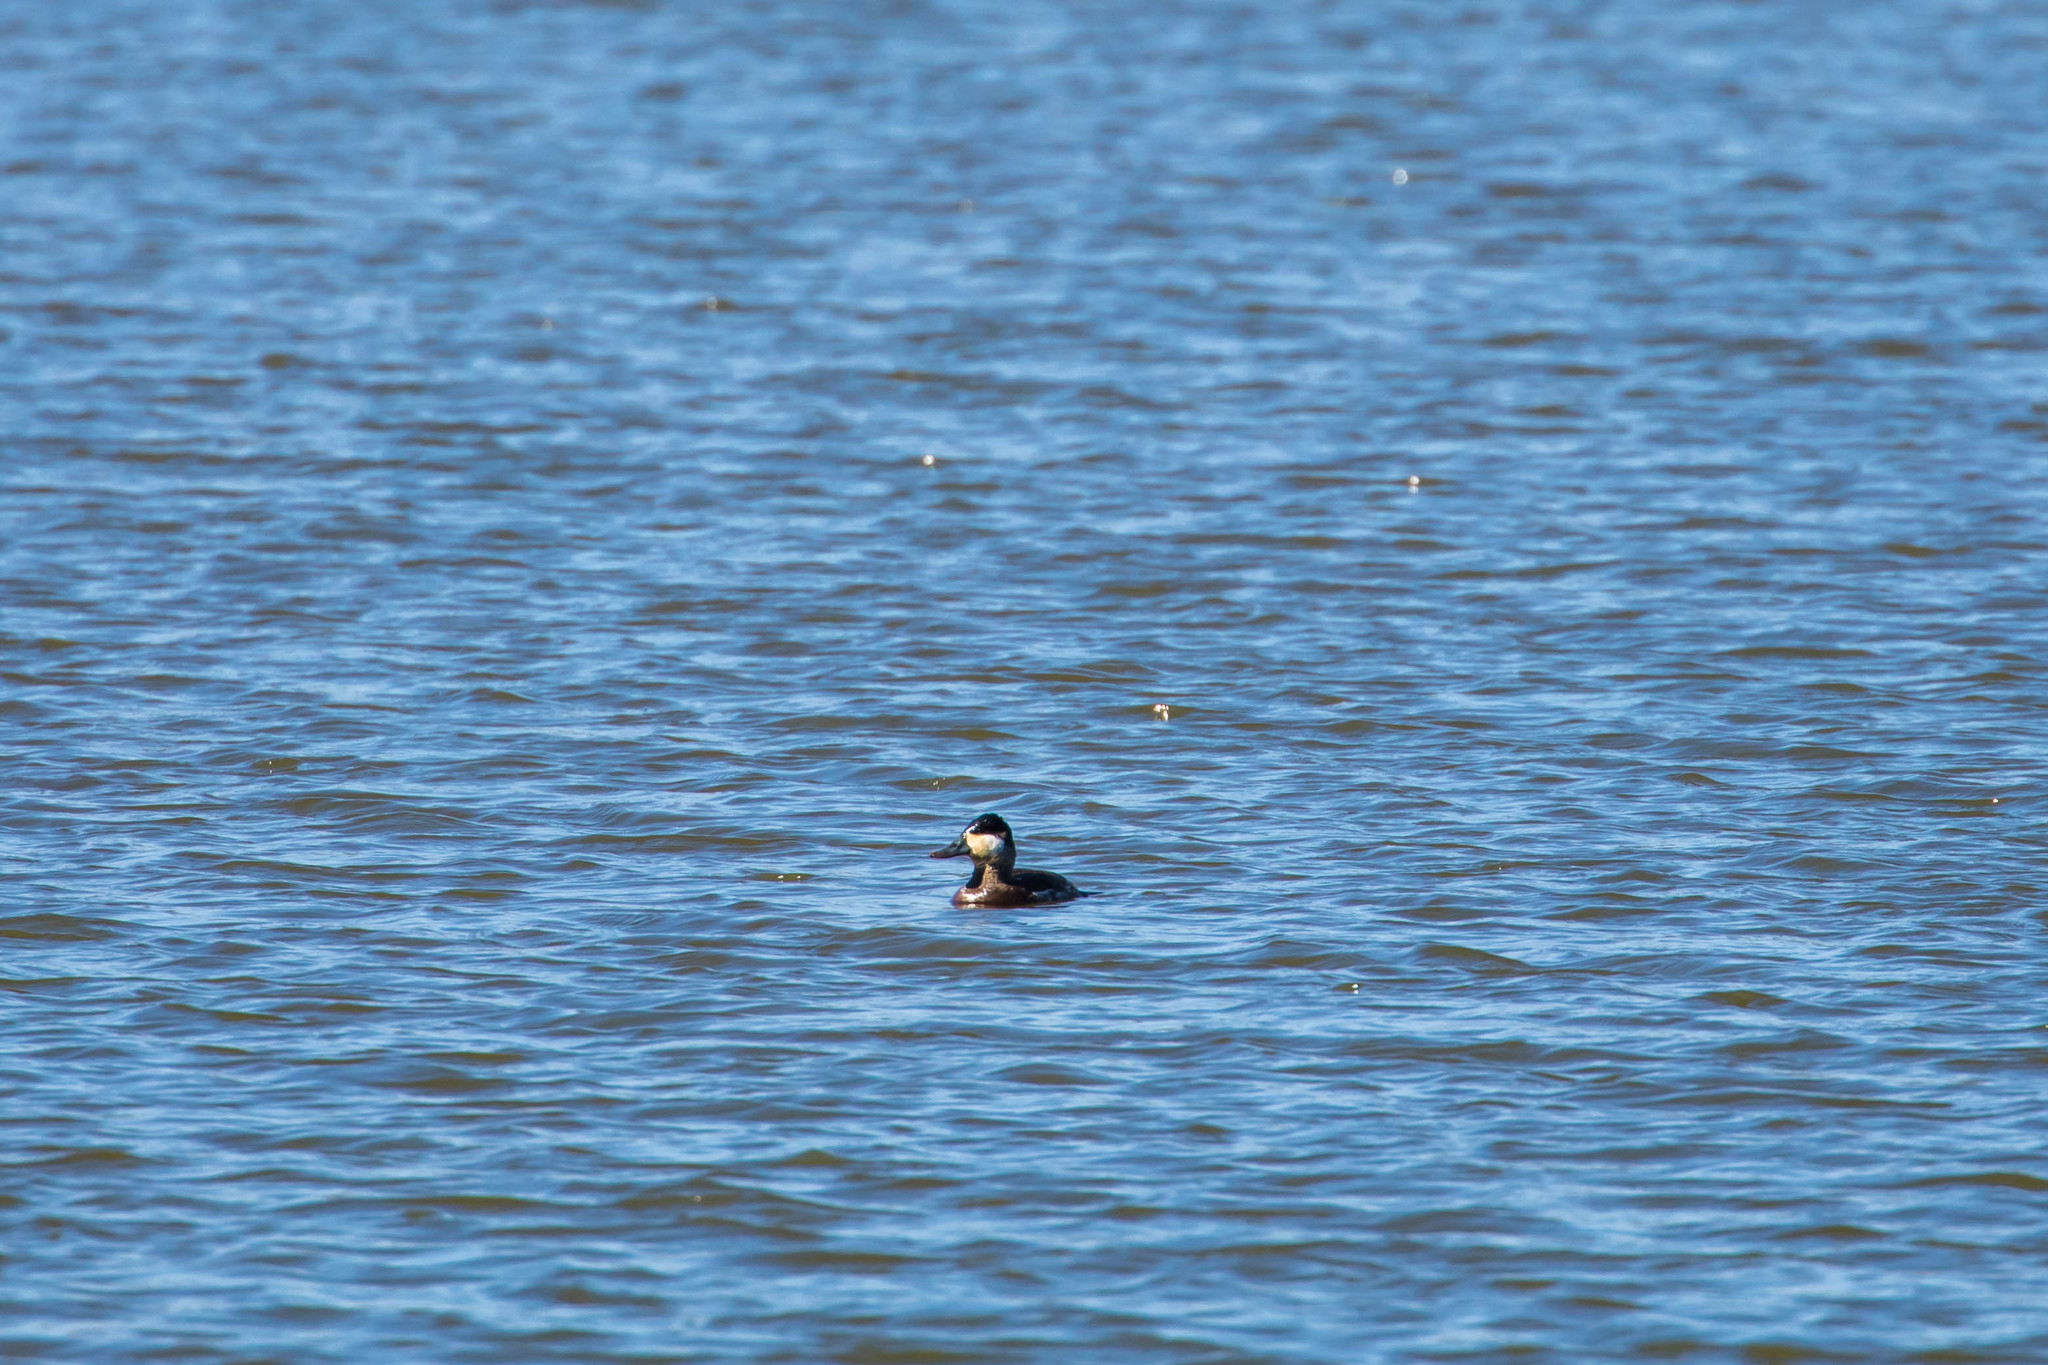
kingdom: Animalia
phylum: Chordata
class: Aves
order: Anseriformes
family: Anatidae
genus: Oxyura
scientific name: Oxyura jamaicensis
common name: Ruddy duck
